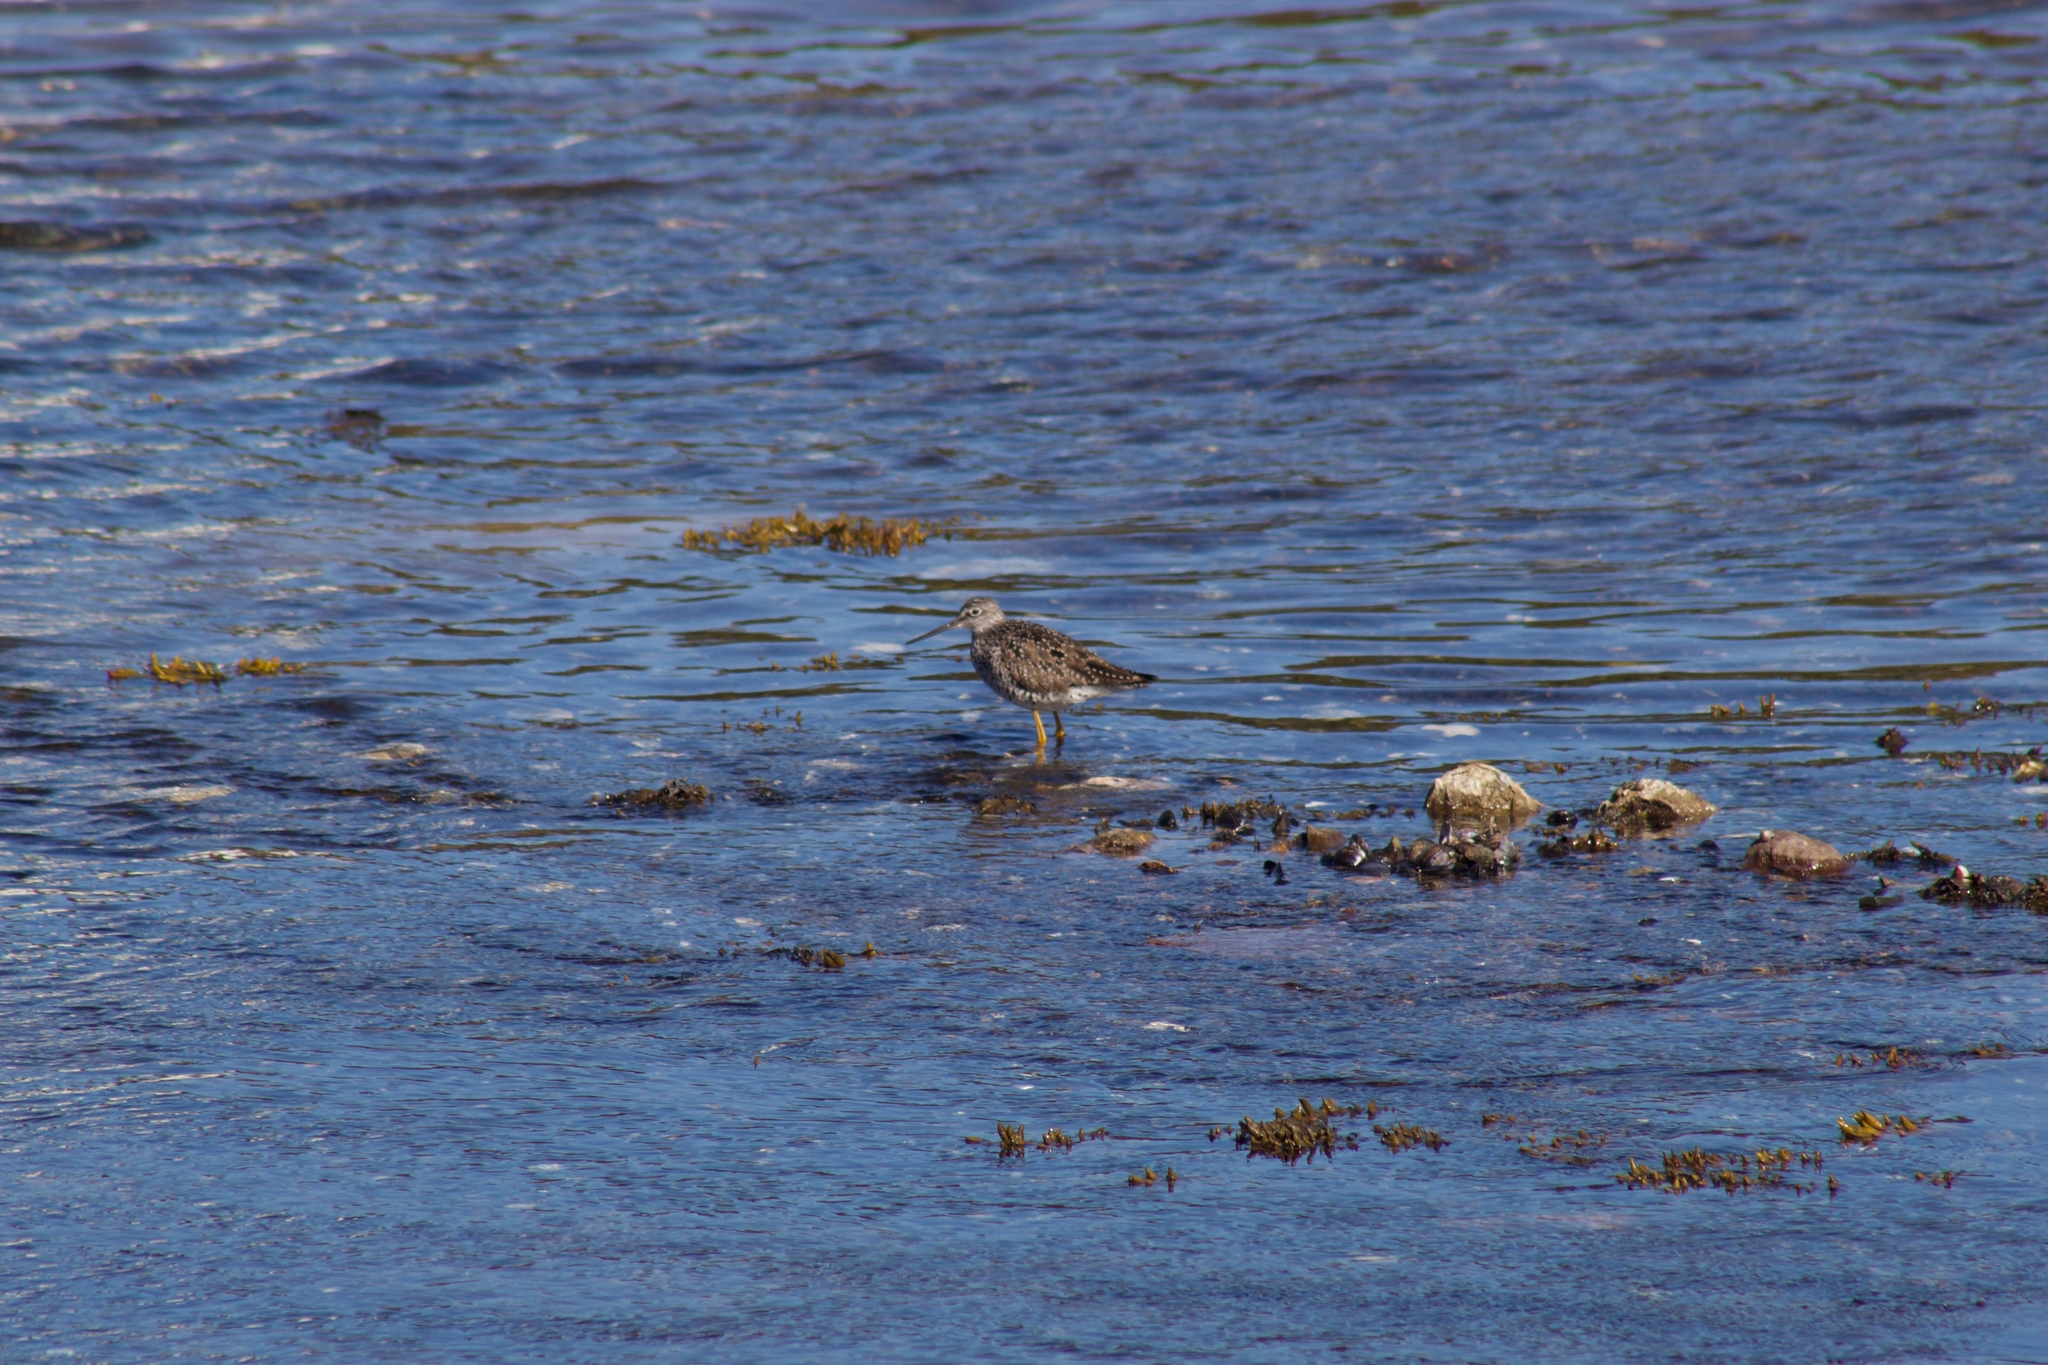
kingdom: Animalia
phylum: Chordata
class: Aves
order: Charadriiformes
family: Scolopacidae
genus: Tringa
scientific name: Tringa melanoleuca
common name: Greater yellowlegs
